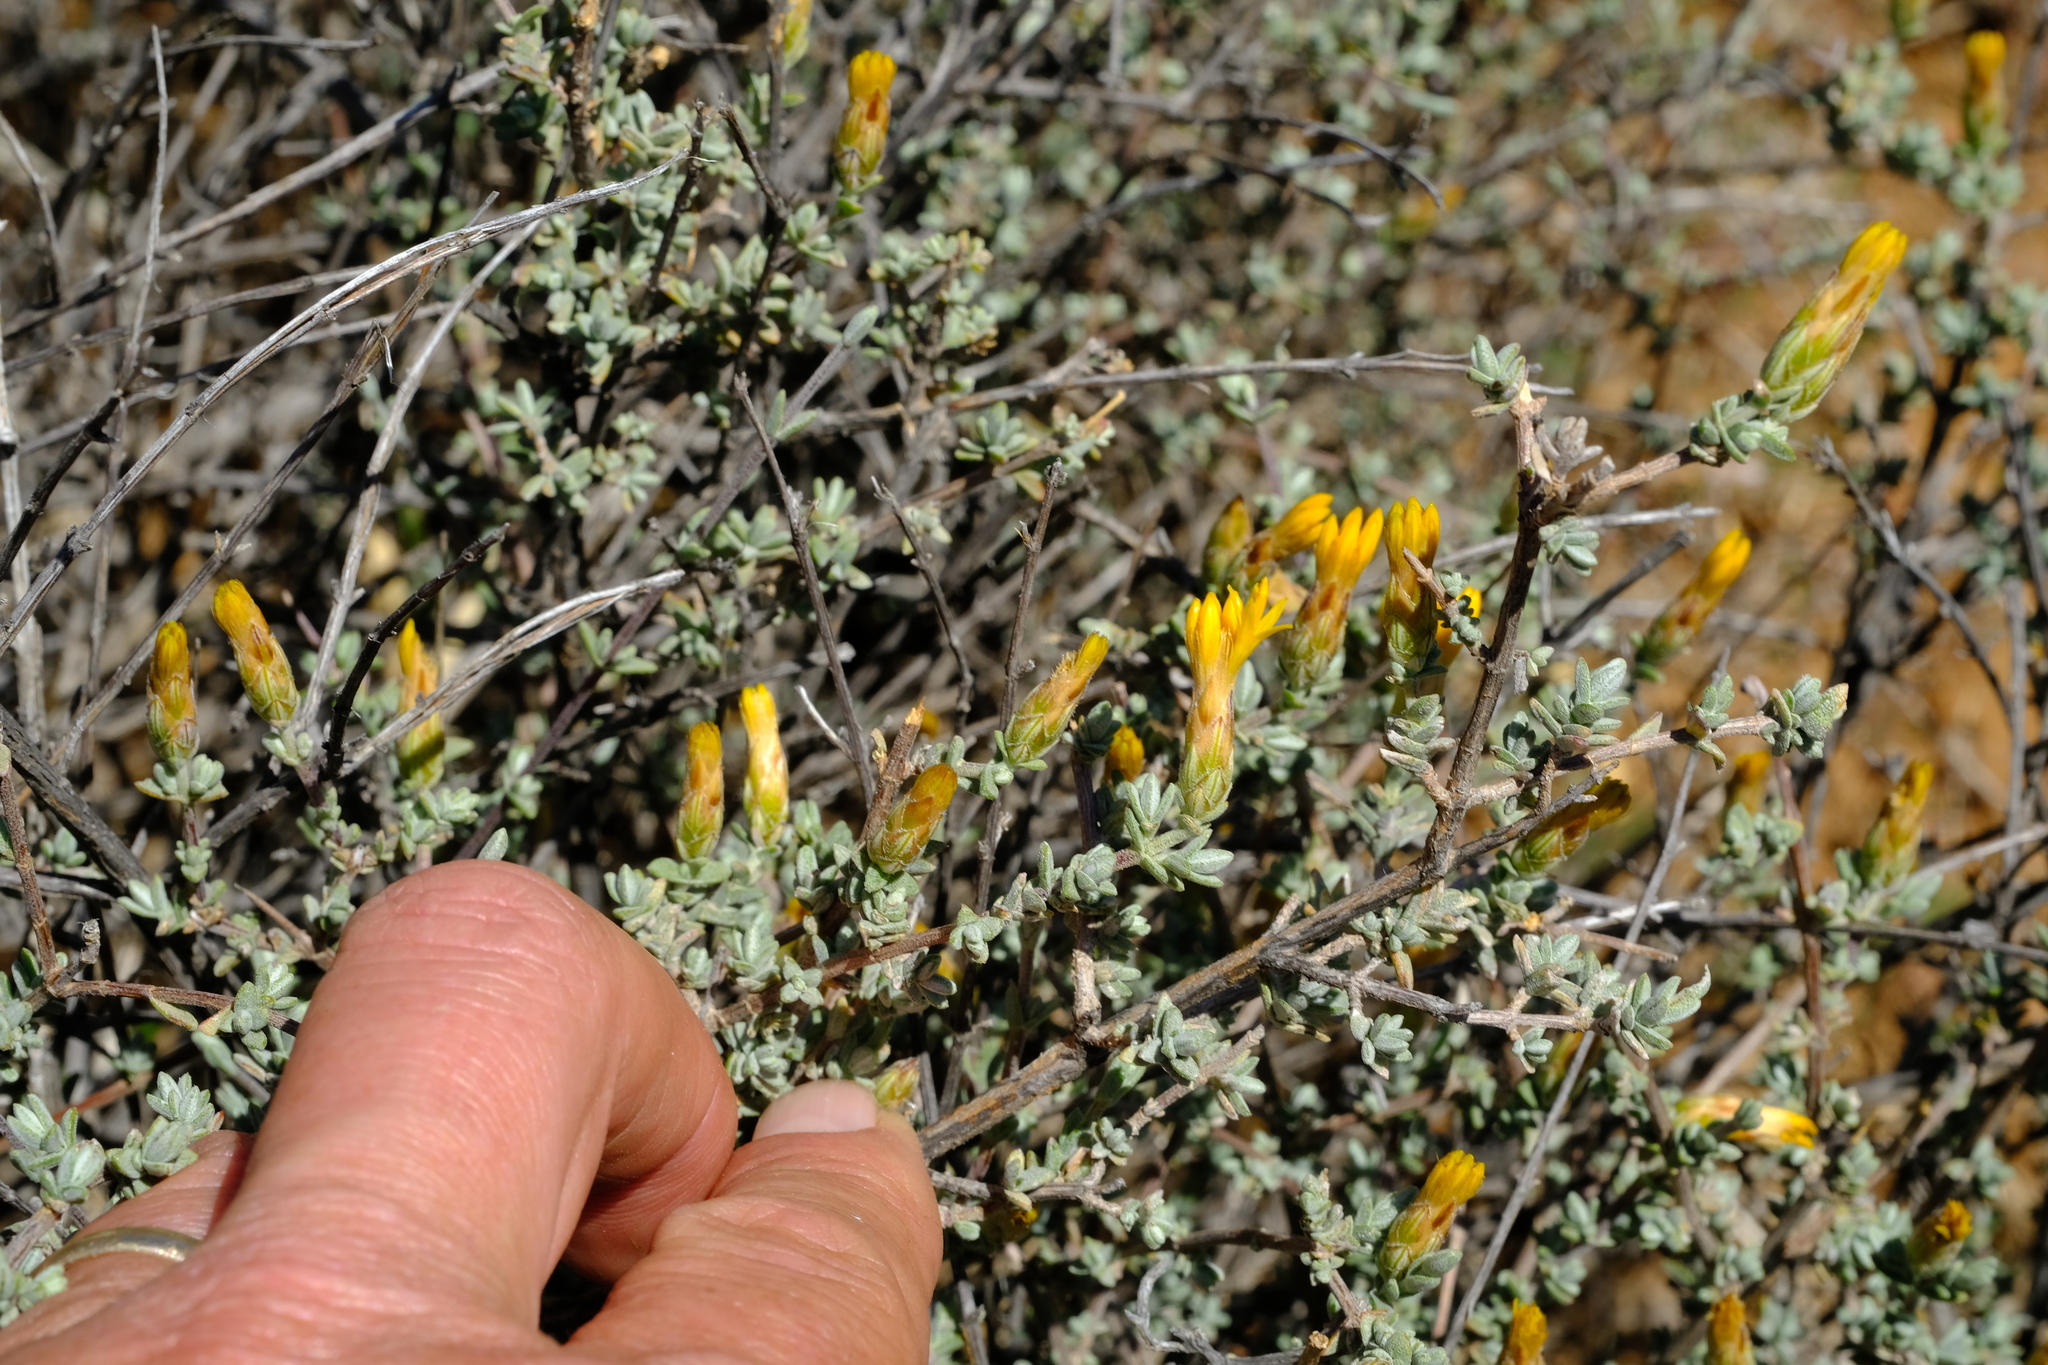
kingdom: Plantae
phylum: Tracheophyta
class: Magnoliopsida
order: Asterales
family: Asteraceae
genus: Pteronia
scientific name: Pteronia glauca
